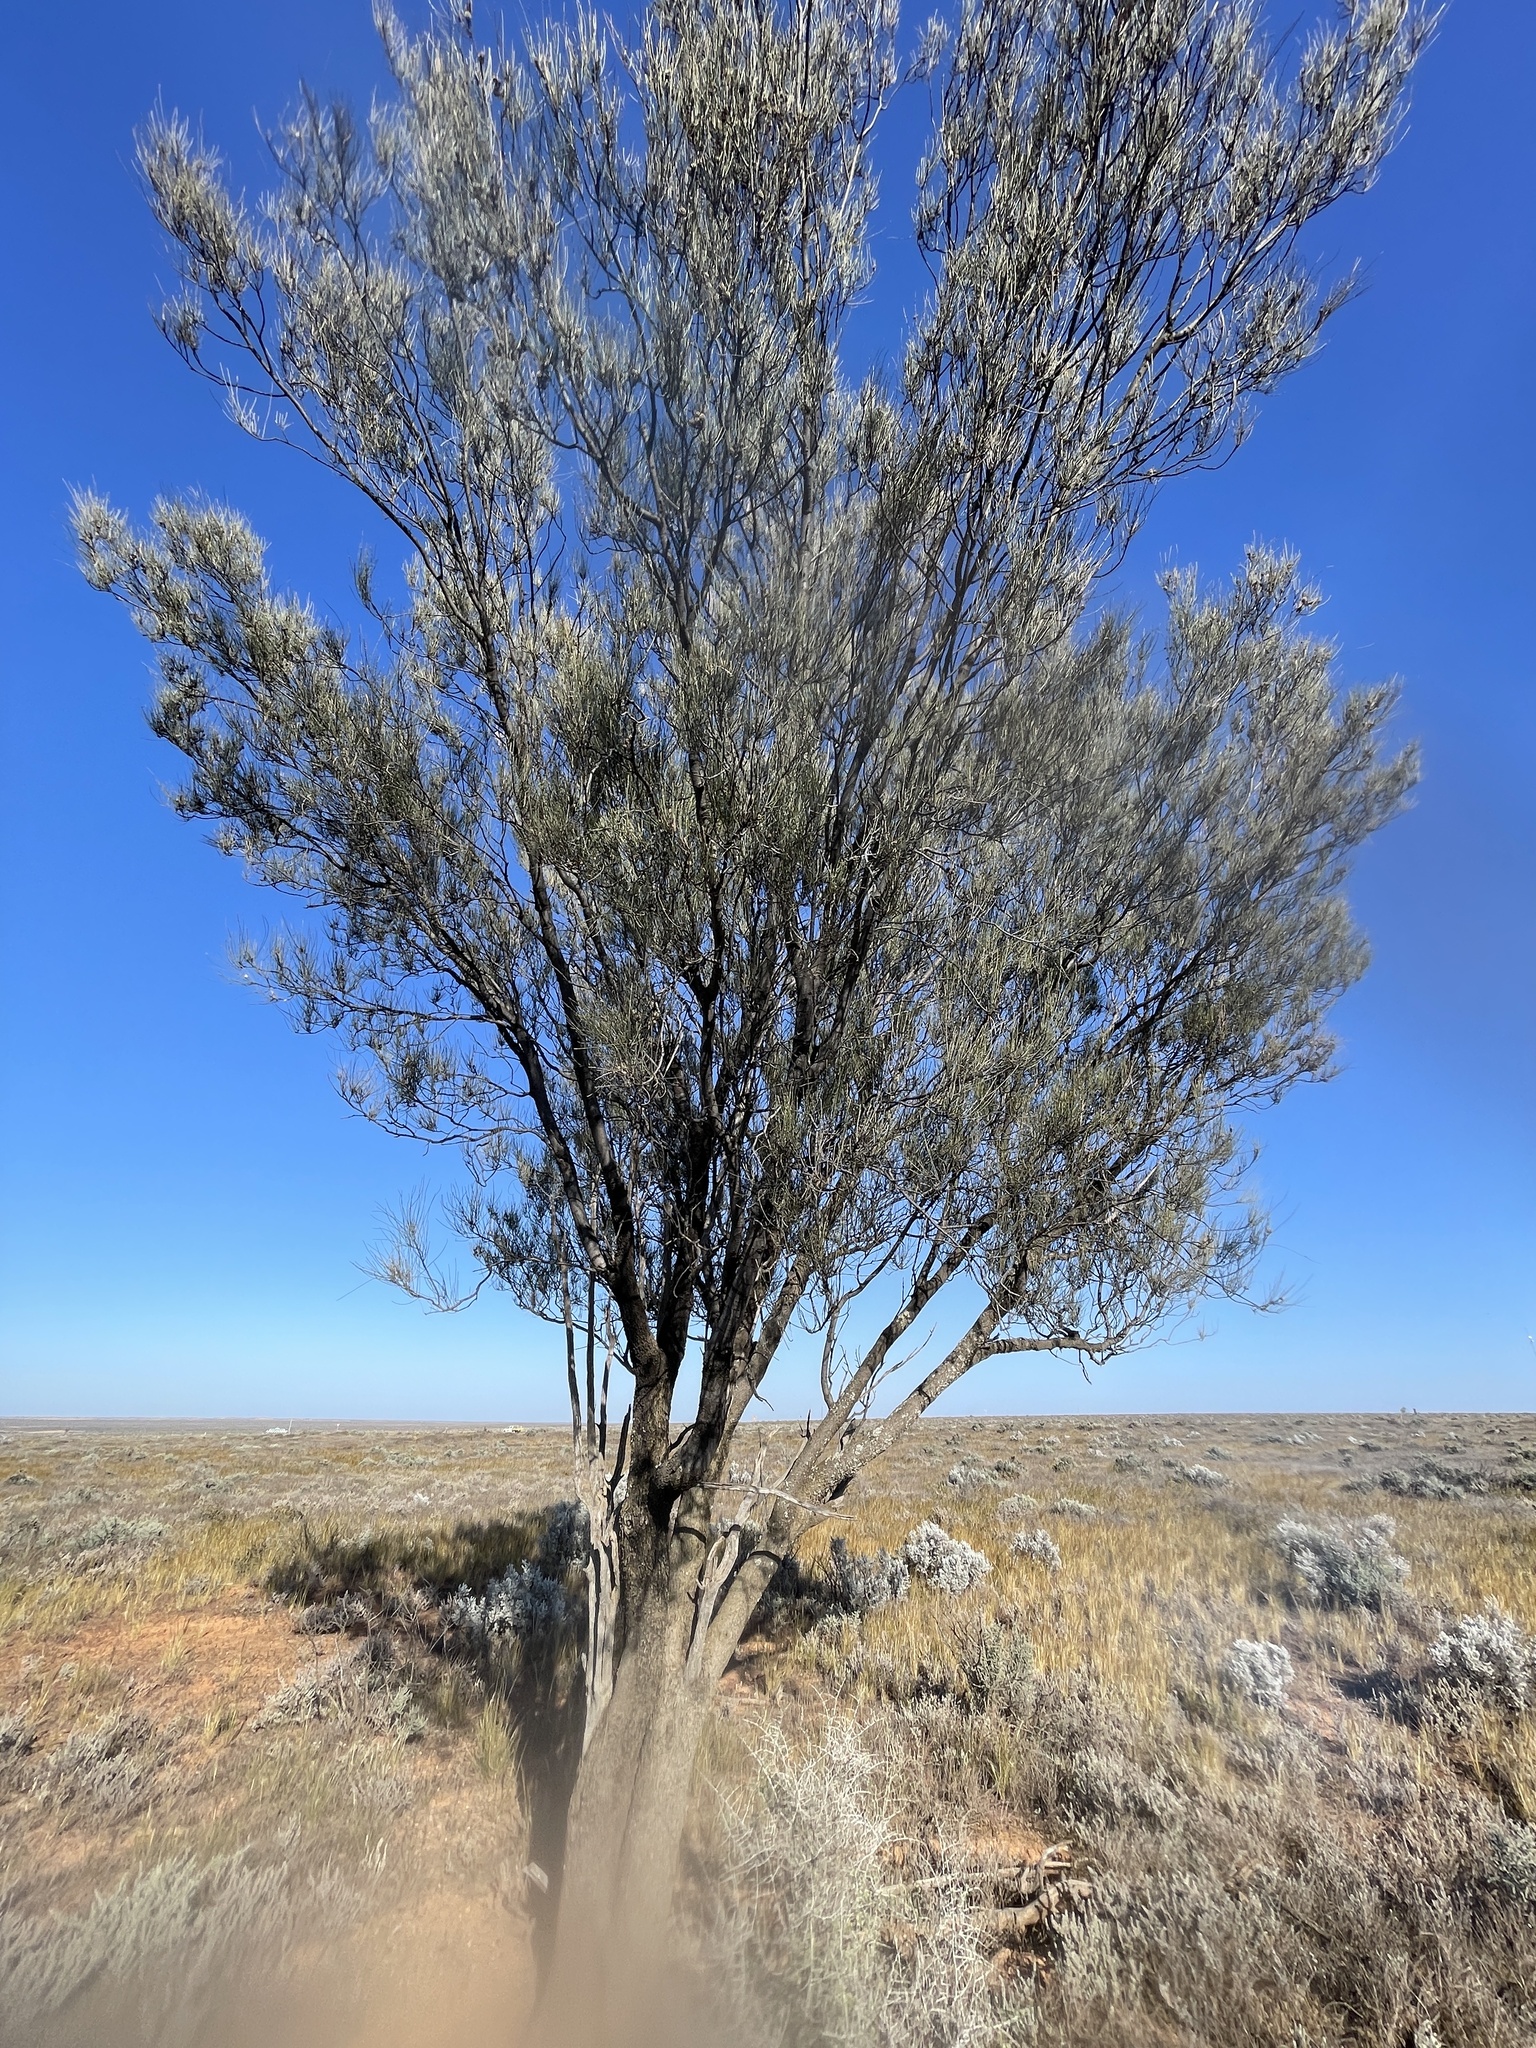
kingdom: Plantae
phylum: Tracheophyta
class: Magnoliopsida
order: Fagales
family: Casuarinaceae
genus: Casuarina
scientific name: Casuarina pauper
